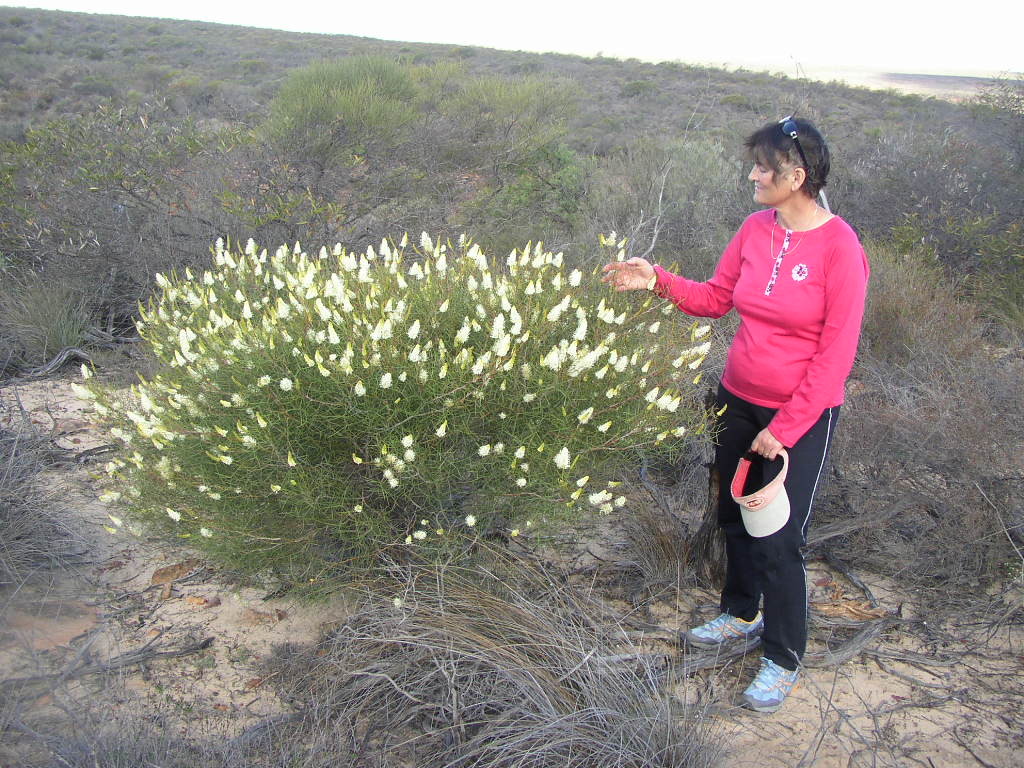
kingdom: Plantae
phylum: Tracheophyta
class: Magnoliopsida
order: Proteales
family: Proteaceae
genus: Grevillea
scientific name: Grevillea leucoclada
